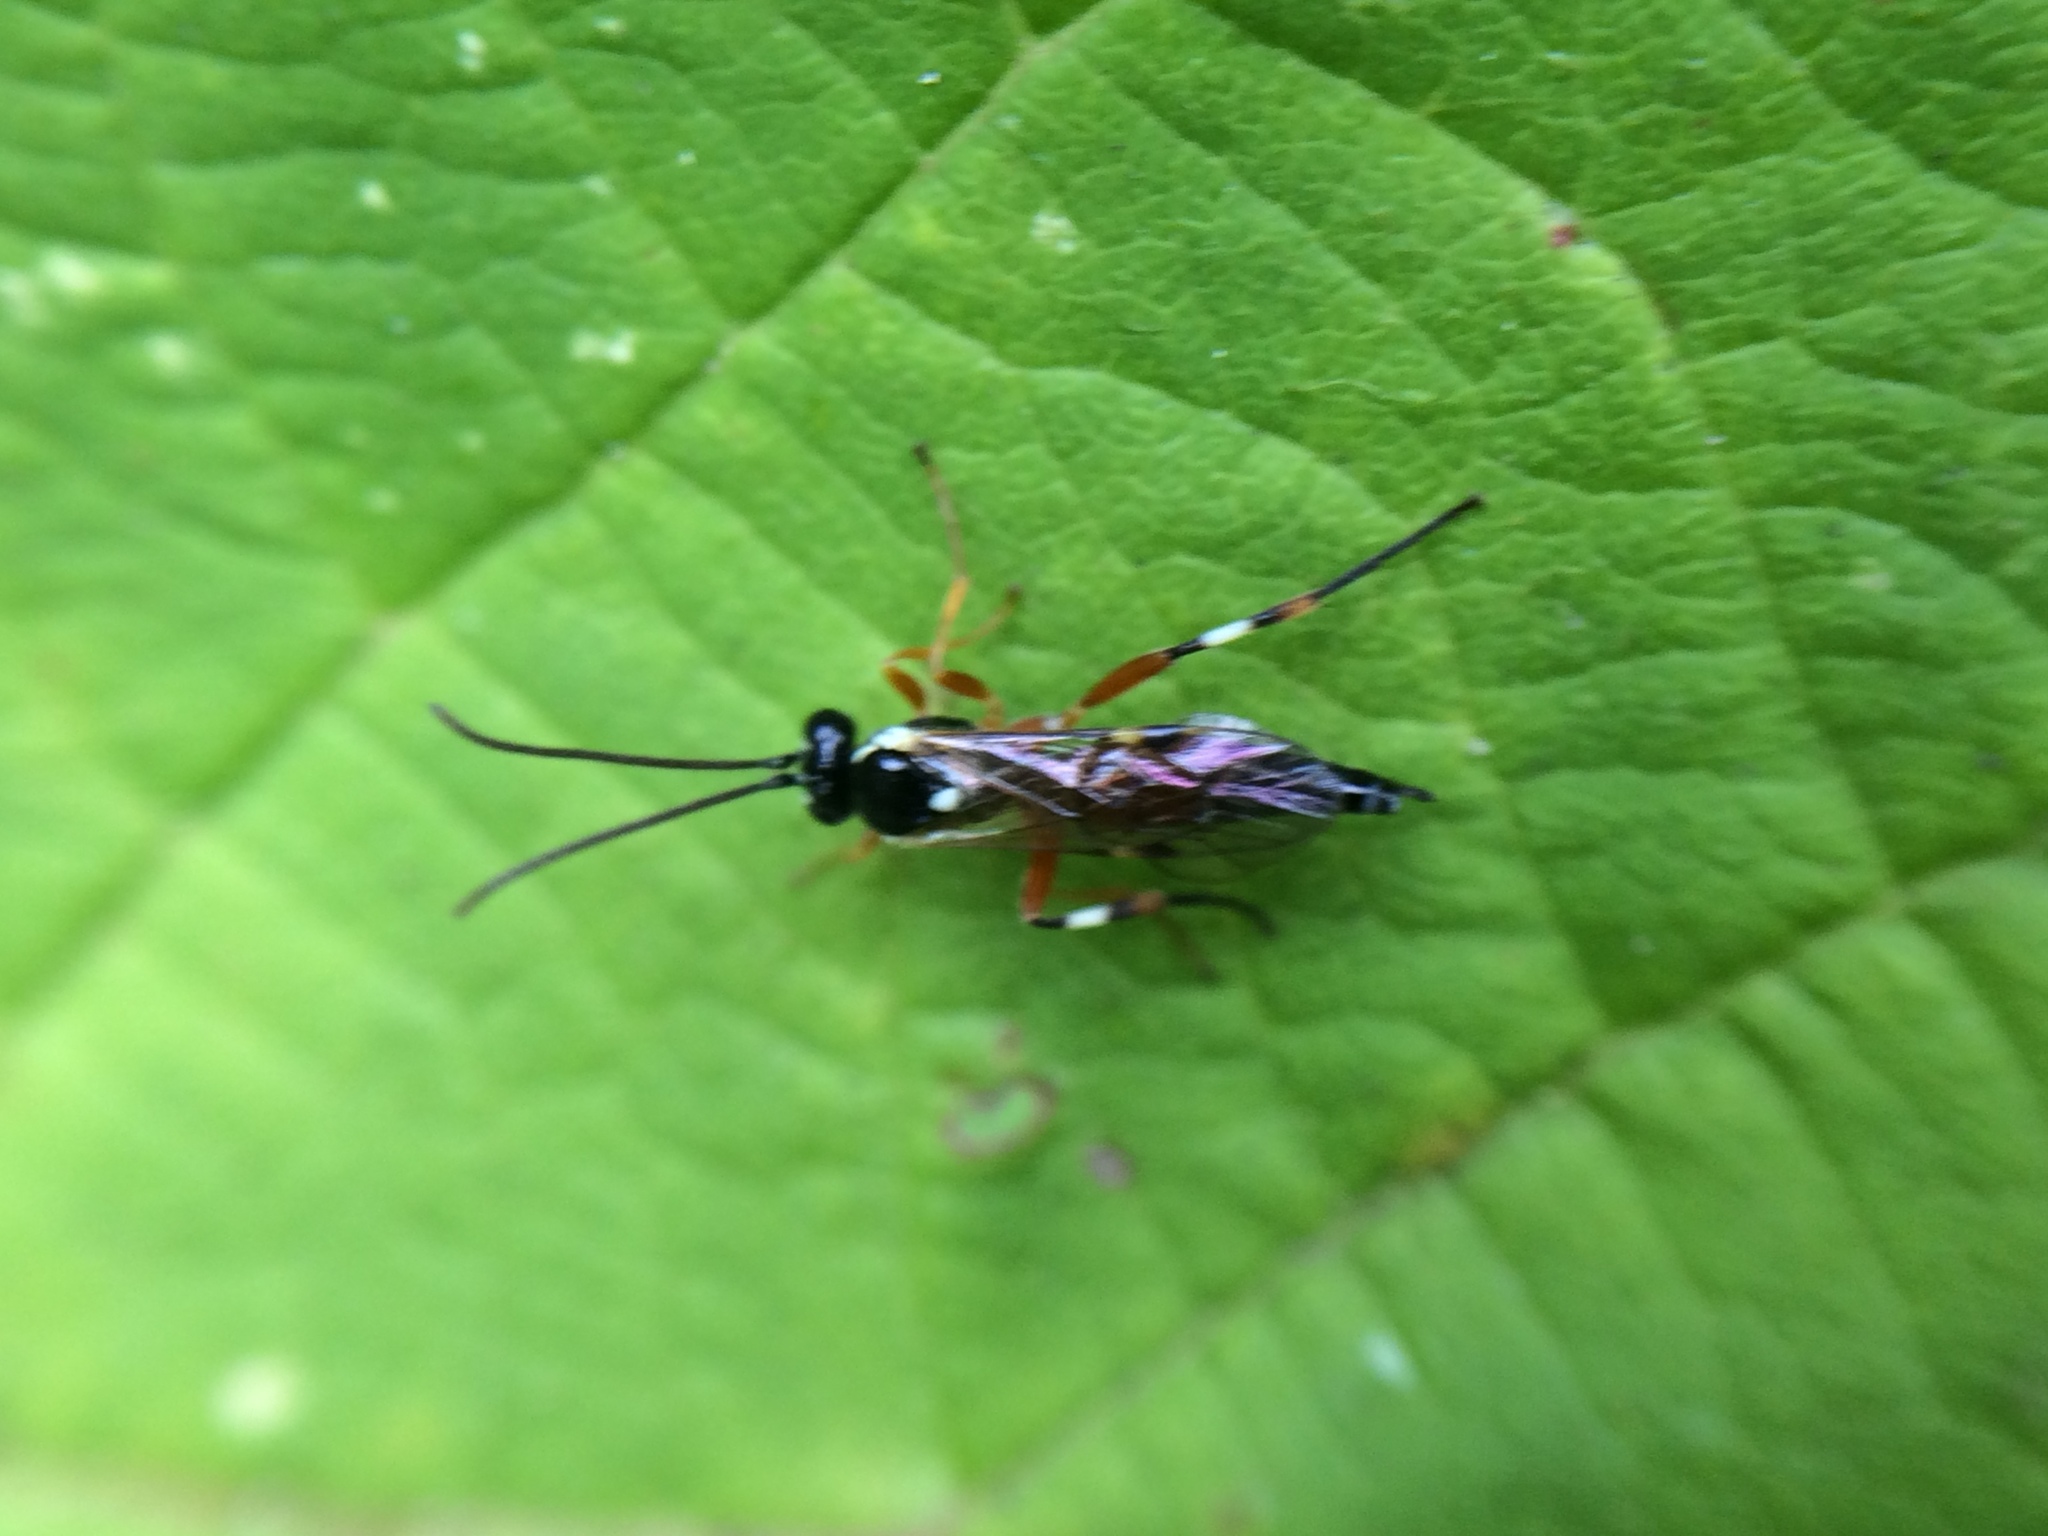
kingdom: Animalia
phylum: Arthropoda
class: Insecta
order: Hymenoptera
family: Ichneumonidae
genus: Diplazon
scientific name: Diplazon laetatorius
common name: Parasitoid wasp
